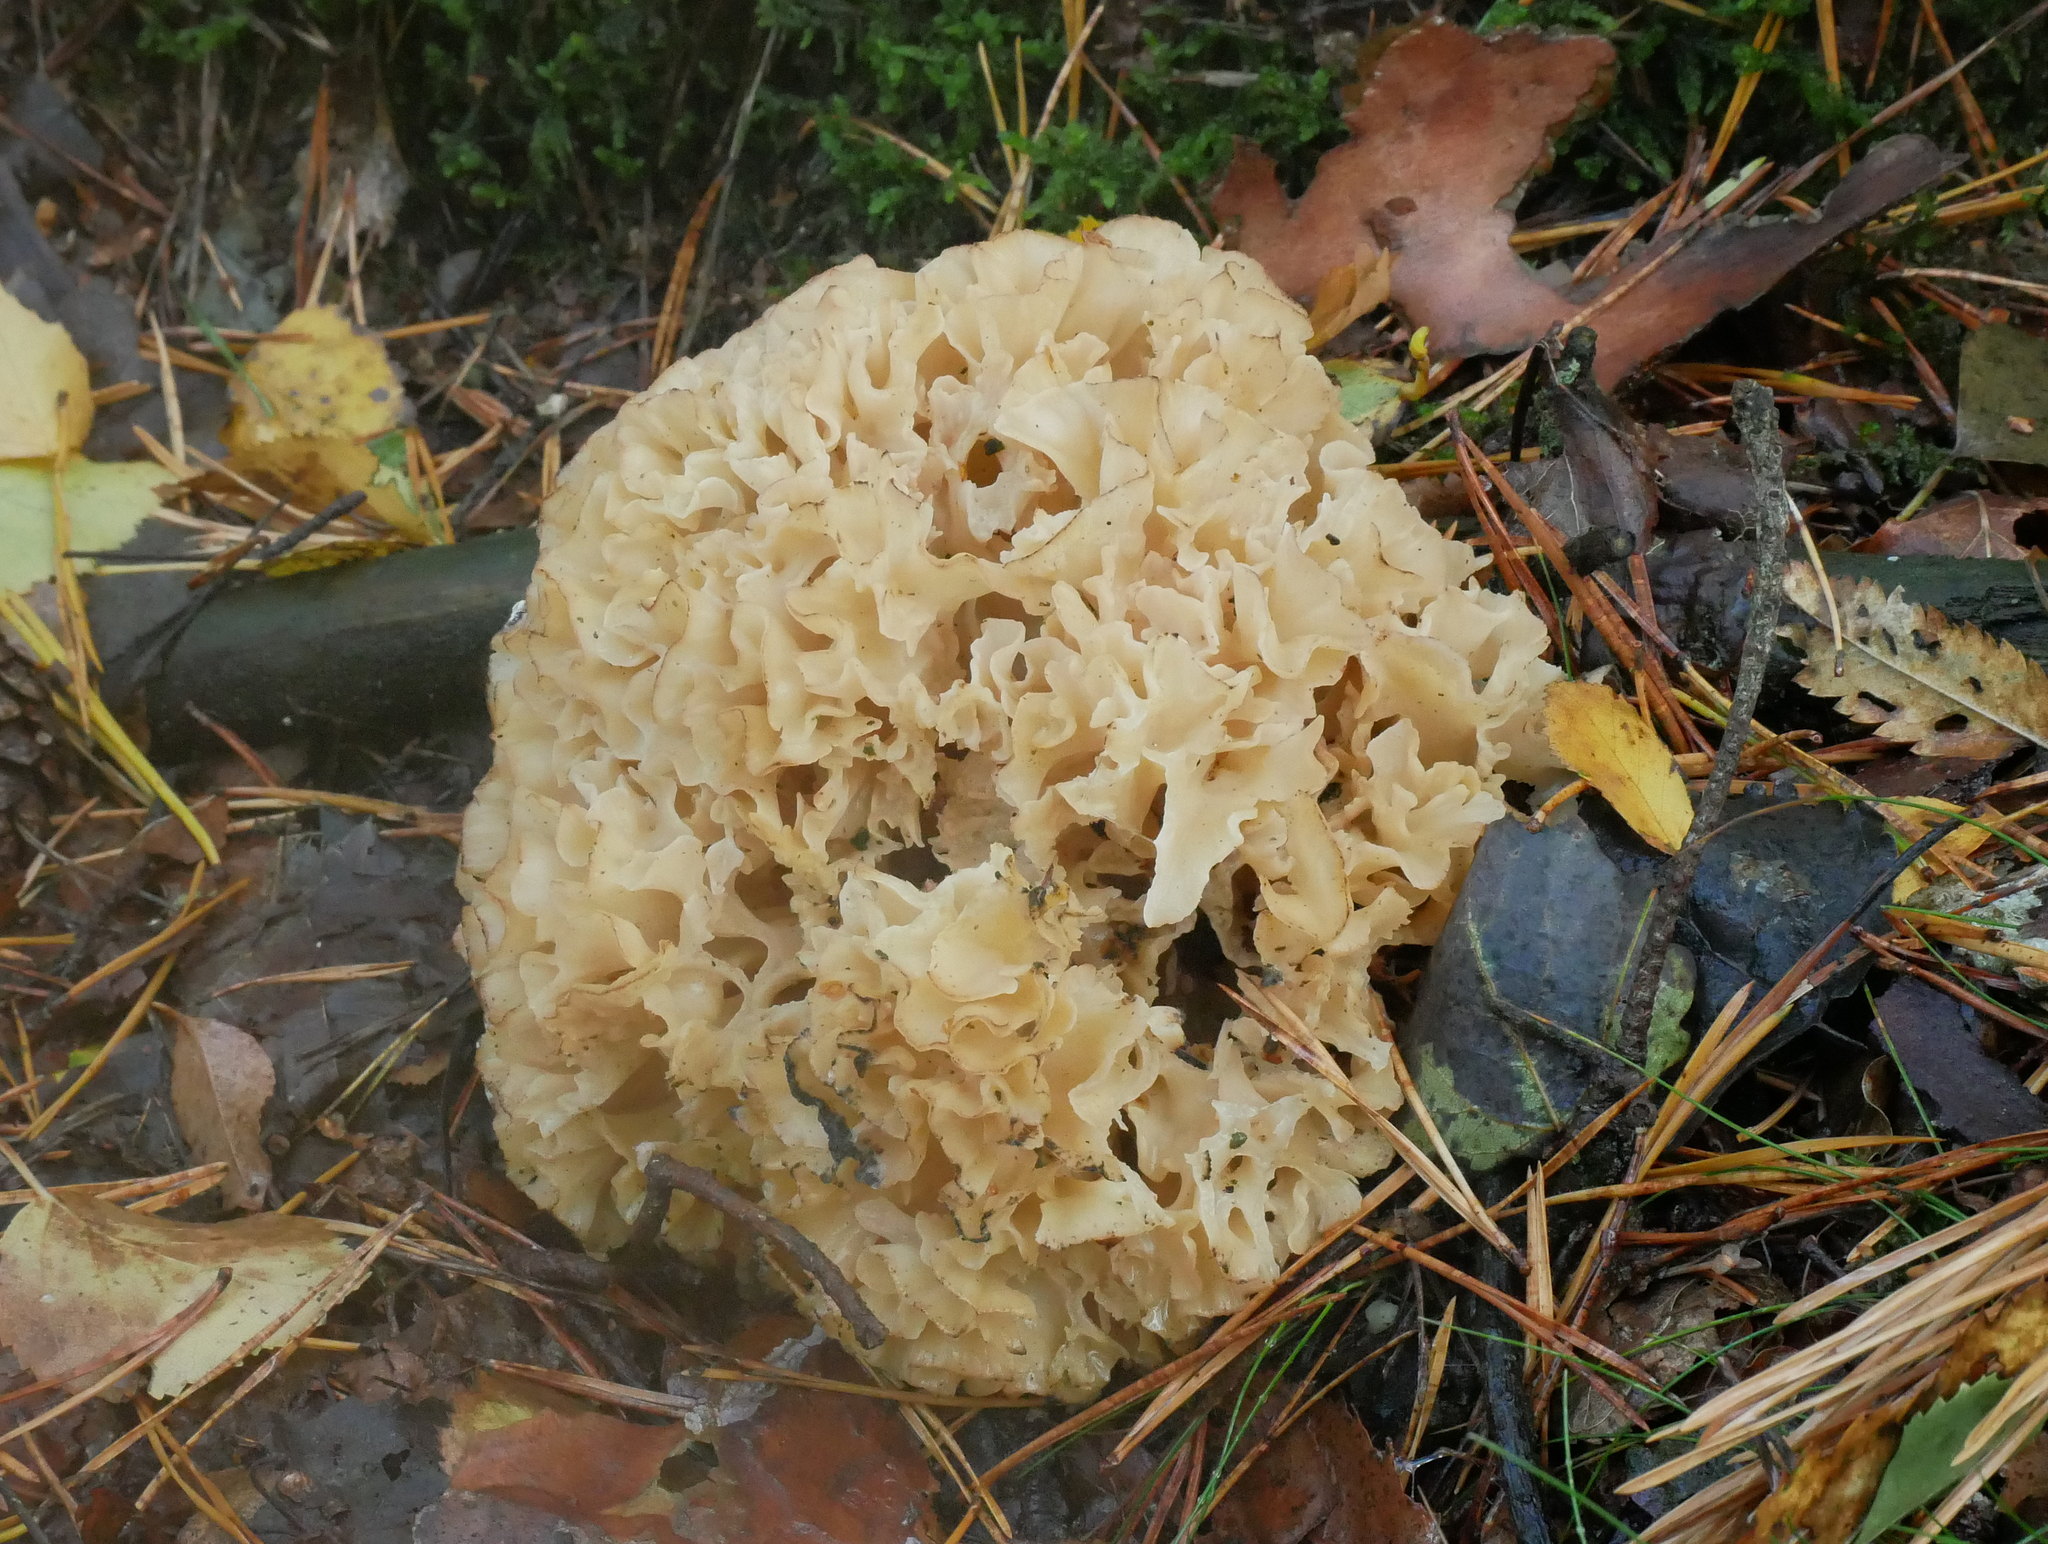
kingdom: Fungi
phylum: Basidiomycota
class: Agaricomycetes
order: Polyporales
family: Sparassidaceae
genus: Sparassis
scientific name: Sparassis crispa
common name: Brain fungus
